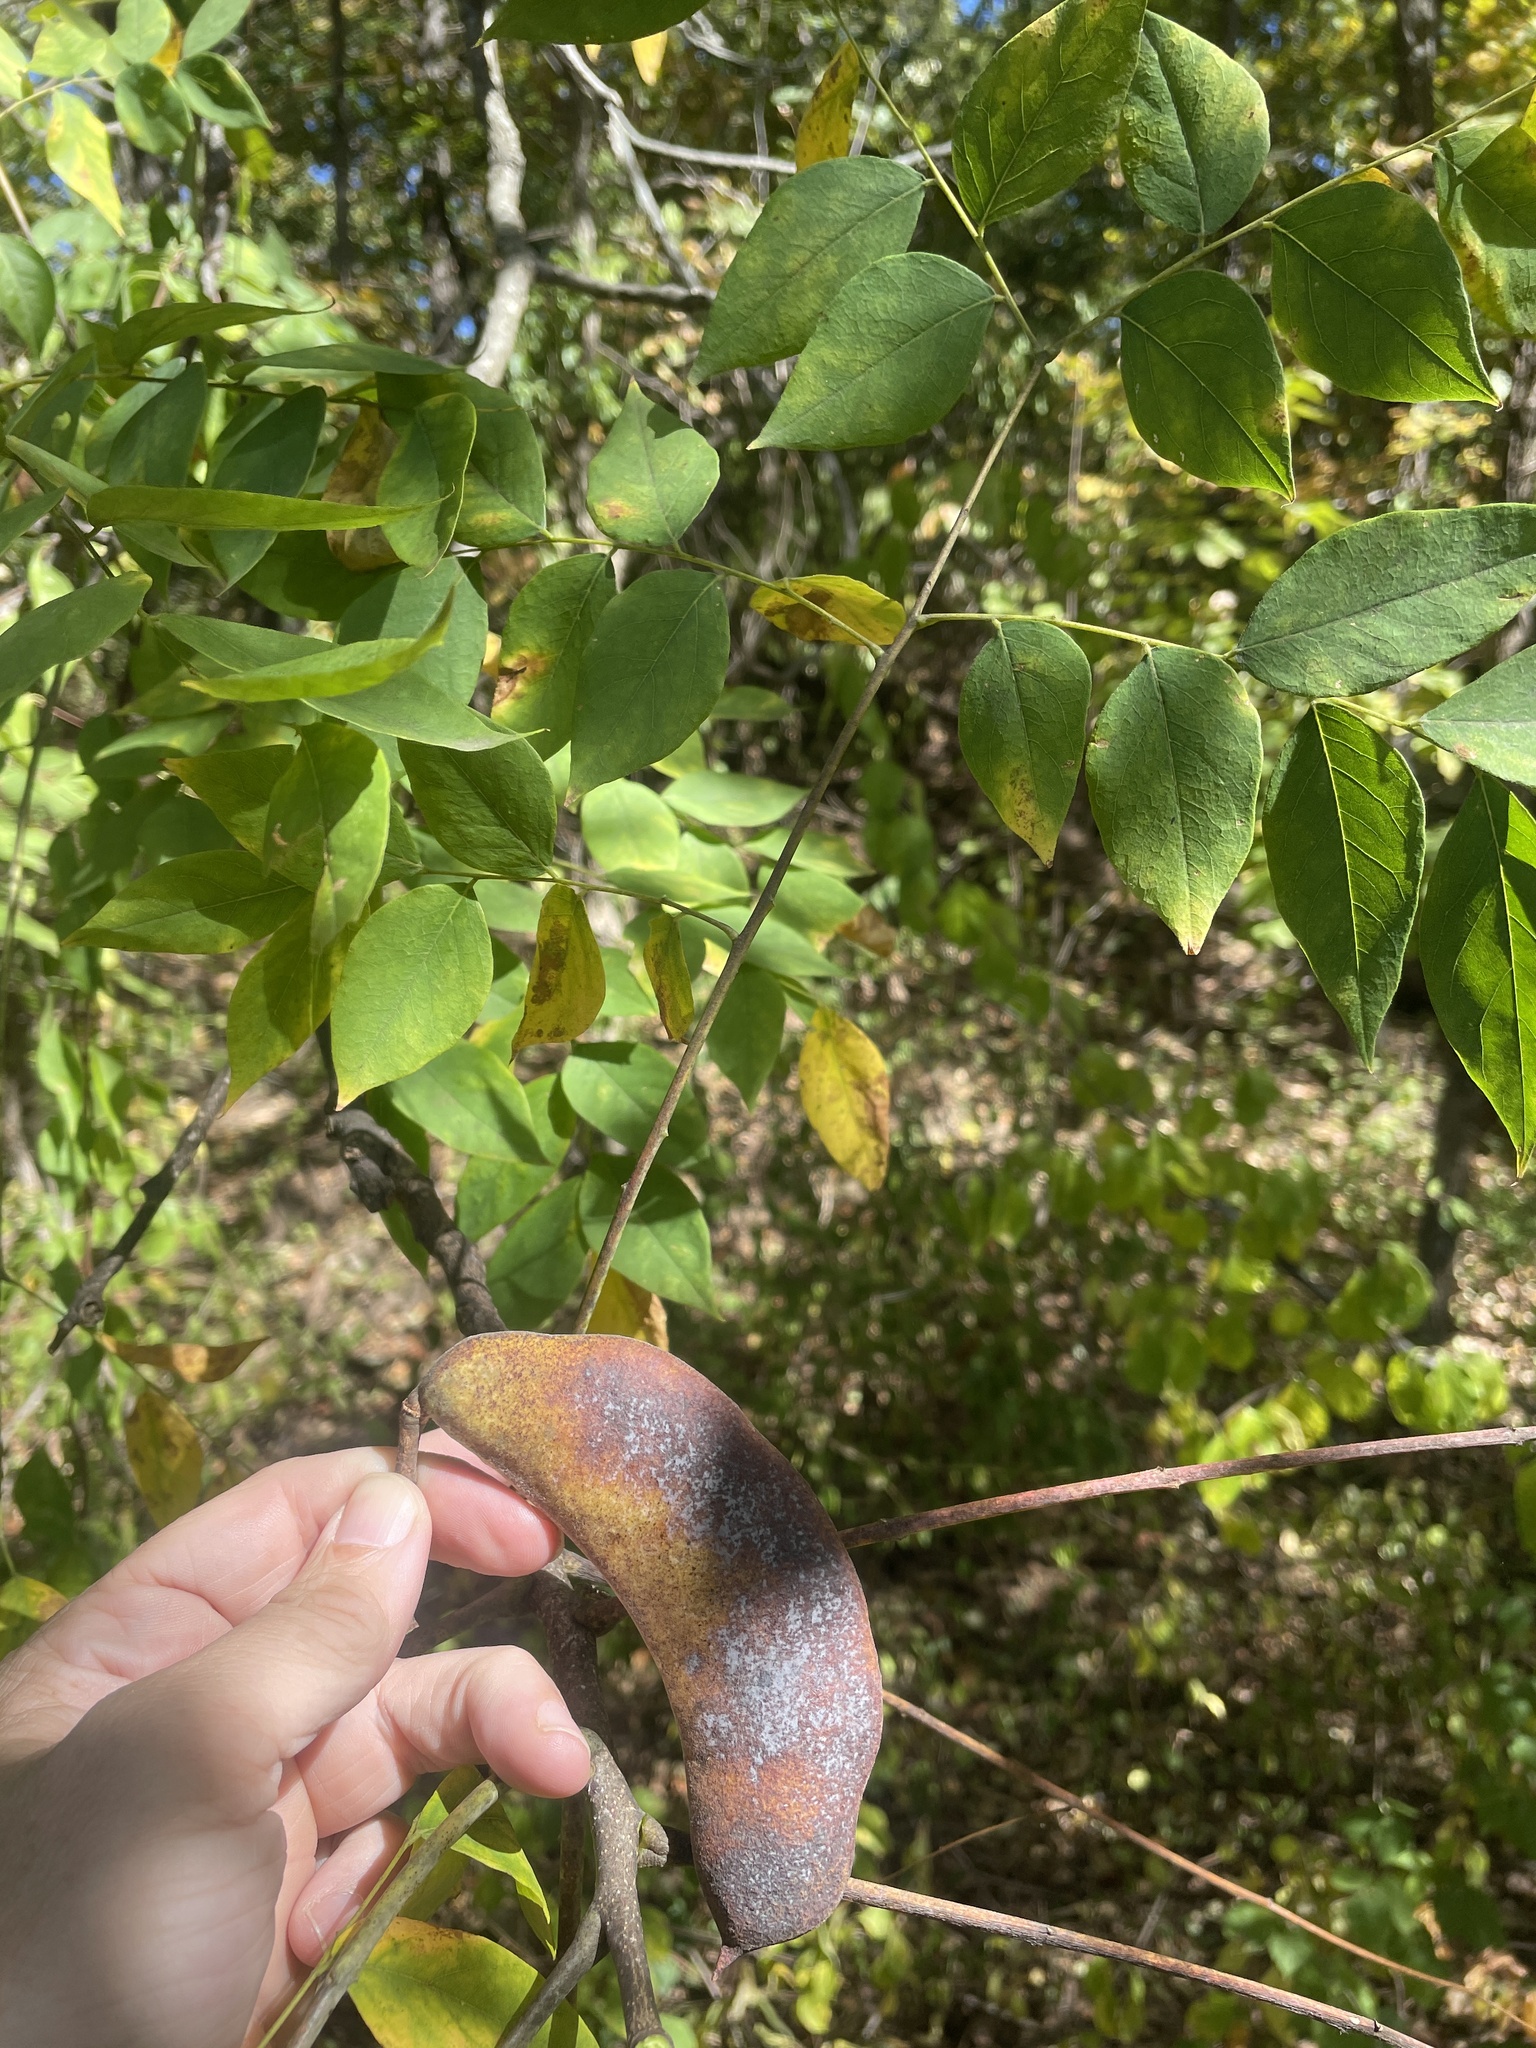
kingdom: Plantae
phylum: Tracheophyta
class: Magnoliopsida
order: Fabales
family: Fabaceae
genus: Gymnocladus
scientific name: Gymnocladus dioicus
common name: Kentucky coffee-tree
